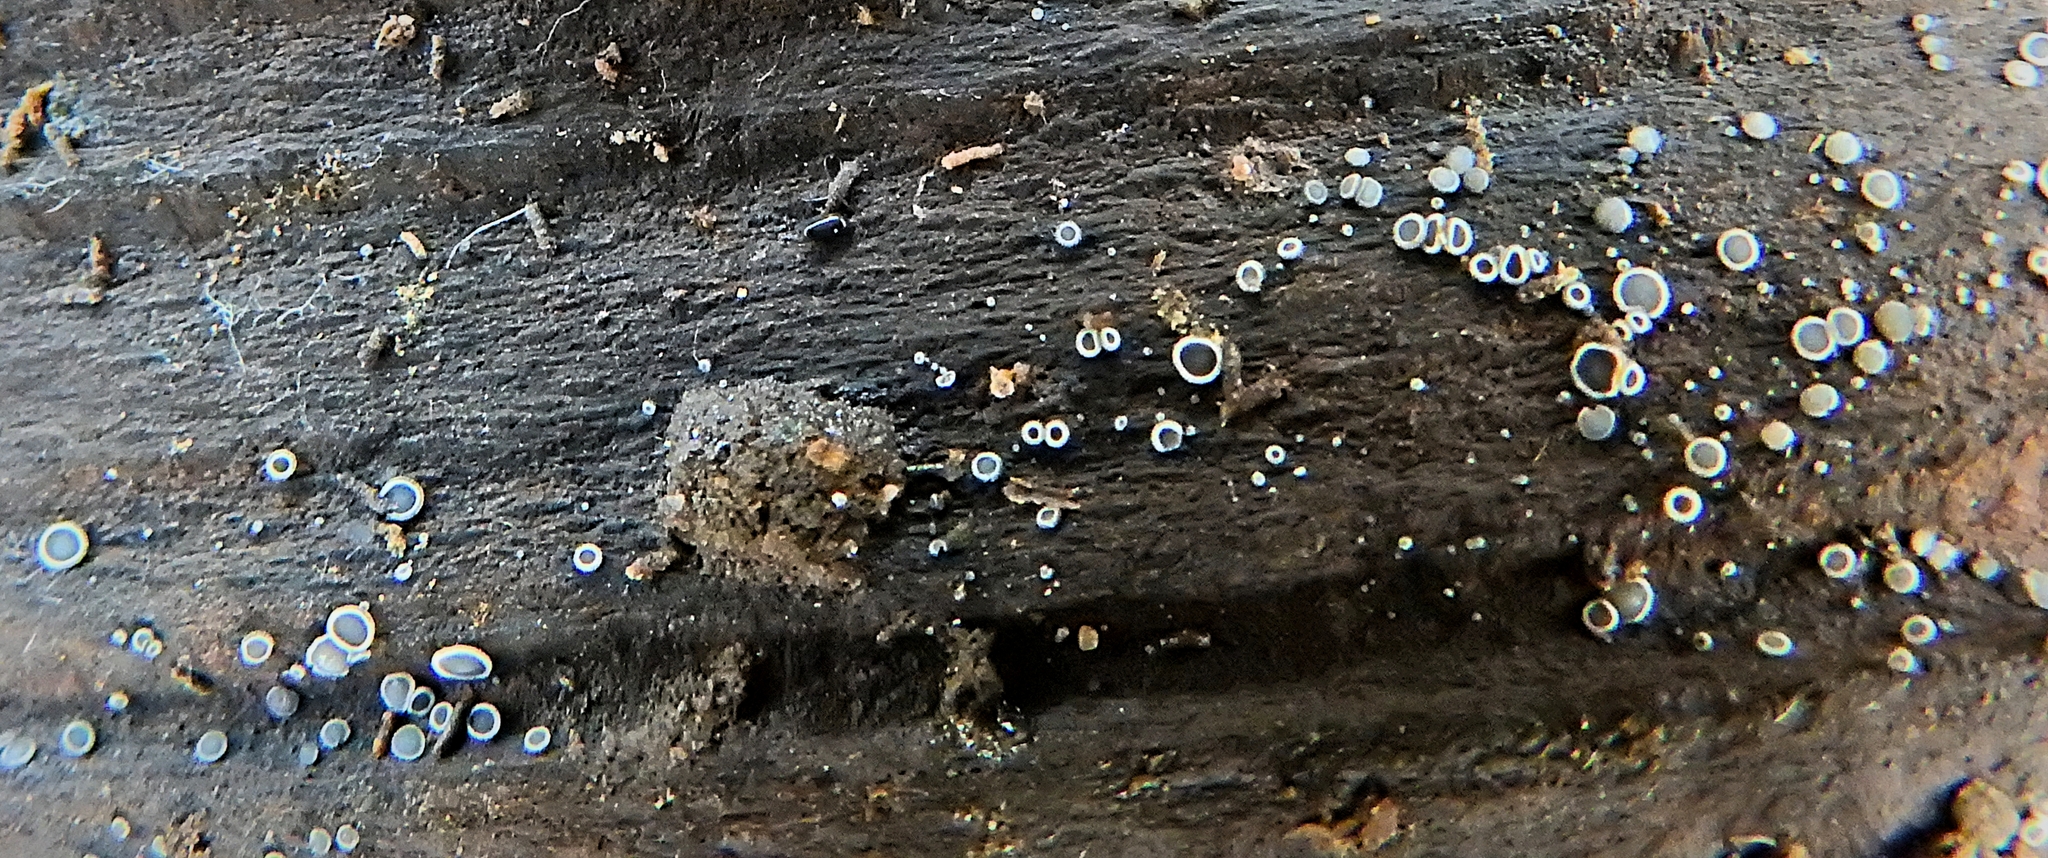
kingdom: Fungi
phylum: Ascomycota
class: Leotiomycetes
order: Helotiales
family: Mollisiaceae
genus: Mollisia
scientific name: Mollisia cinerea
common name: Common grey disco
